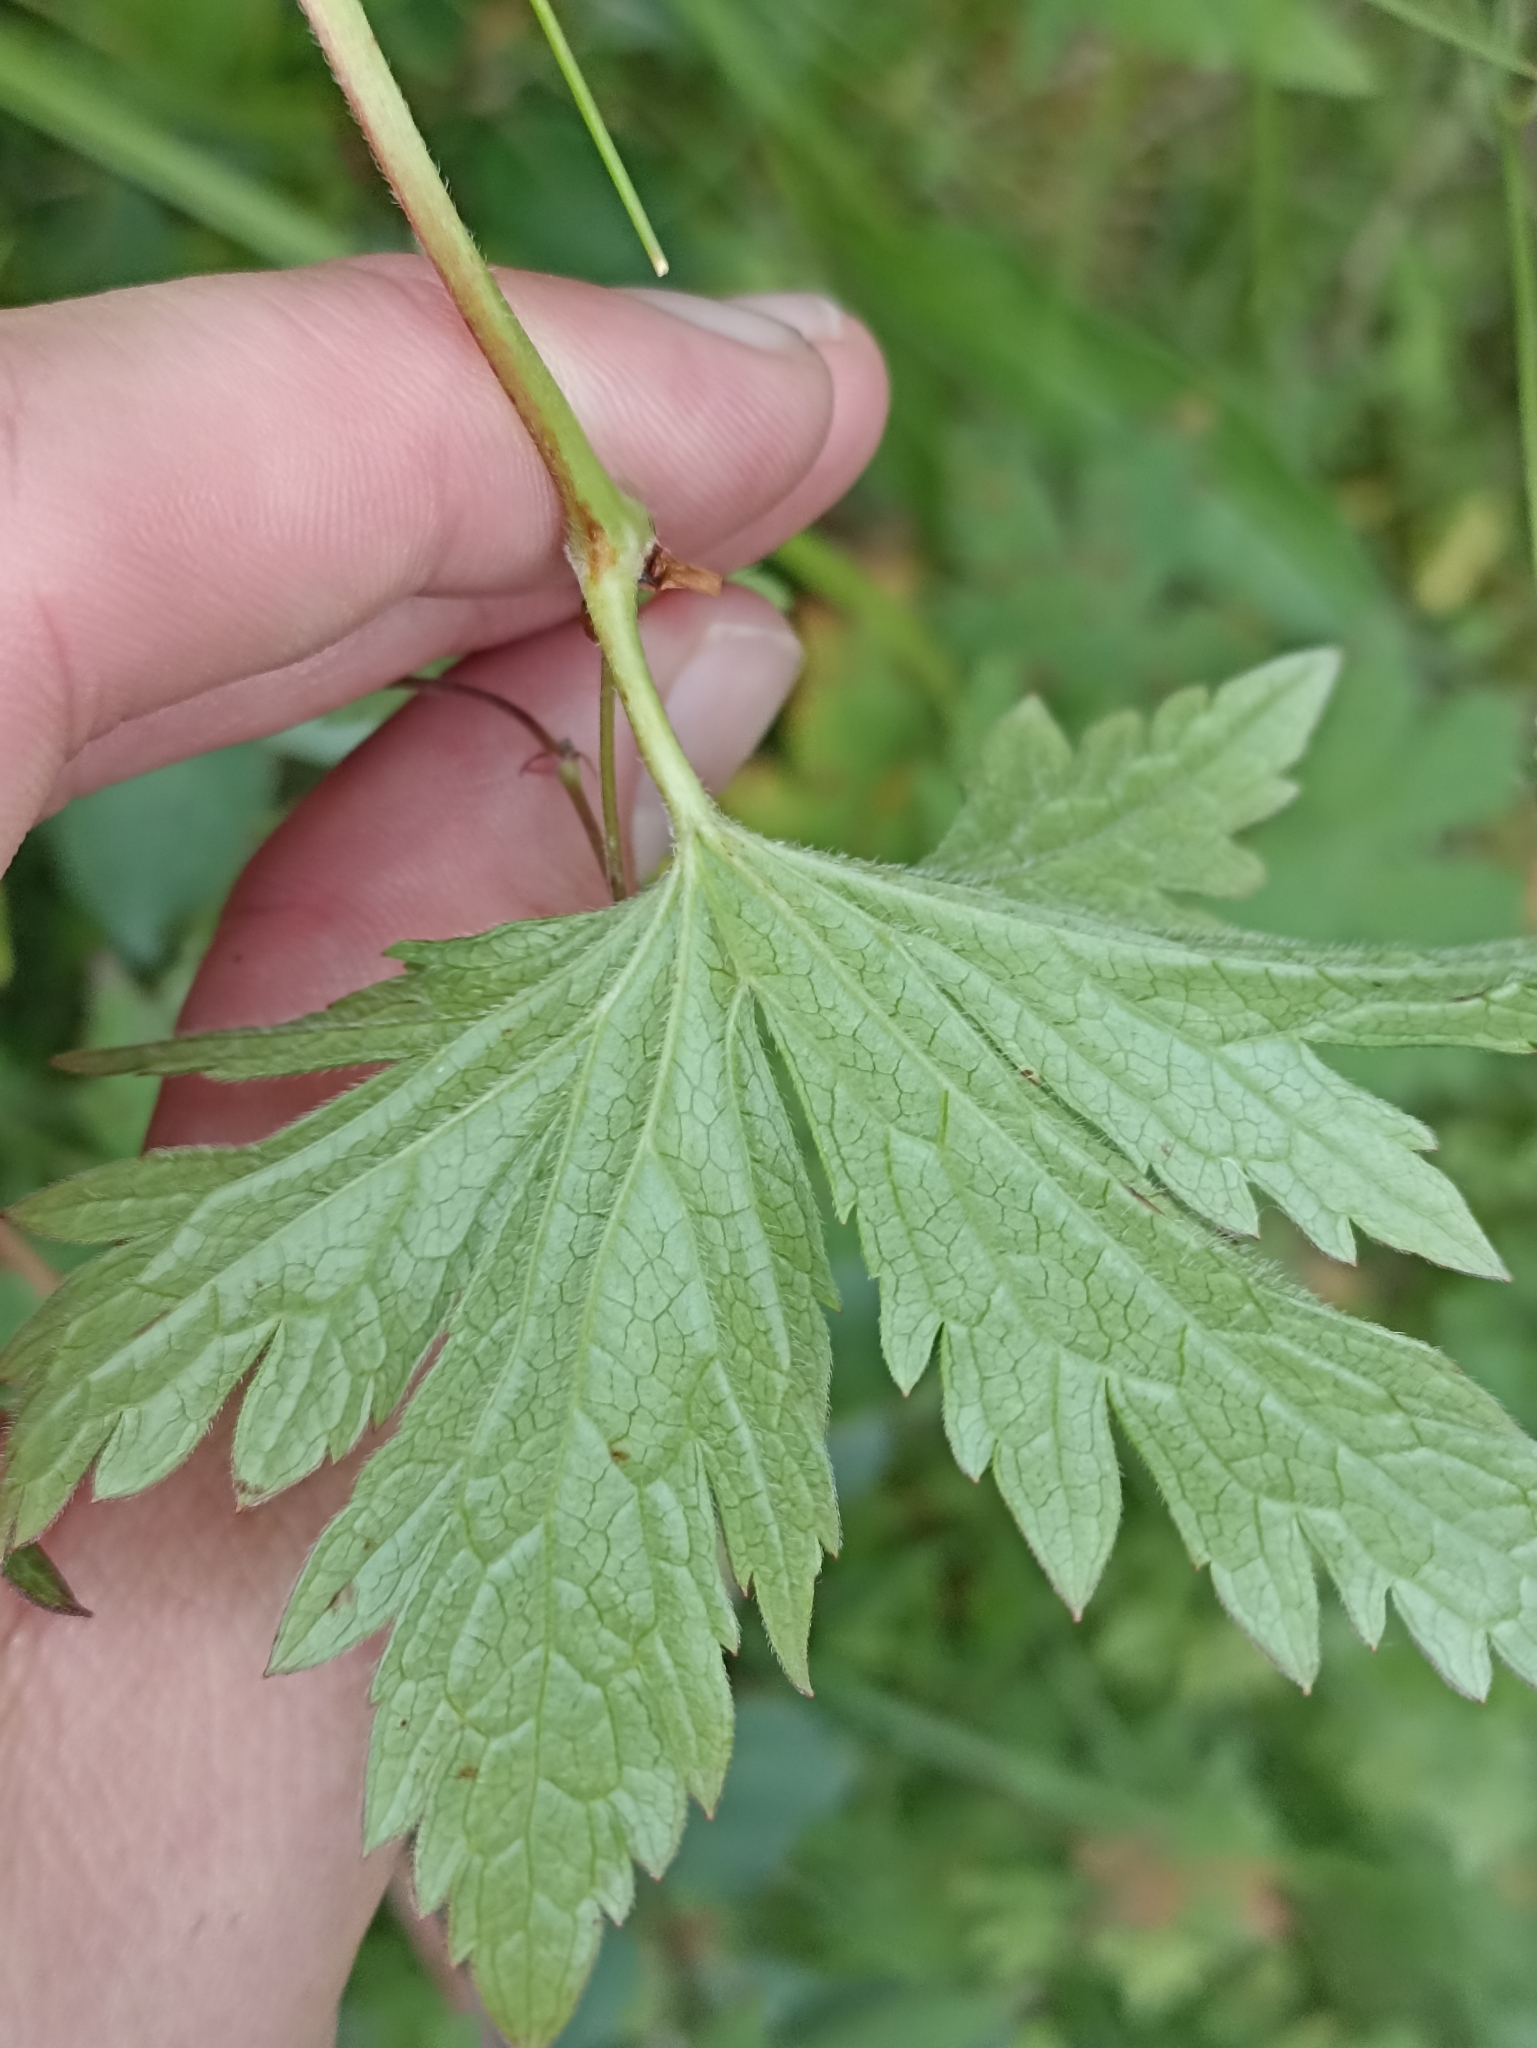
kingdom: Plantae
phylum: Tracheophyta
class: Magnoliopsida
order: Geraniales
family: Geraniaceae
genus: Geranium
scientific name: Geranium sylvaticum
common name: Wood crane's-bill
